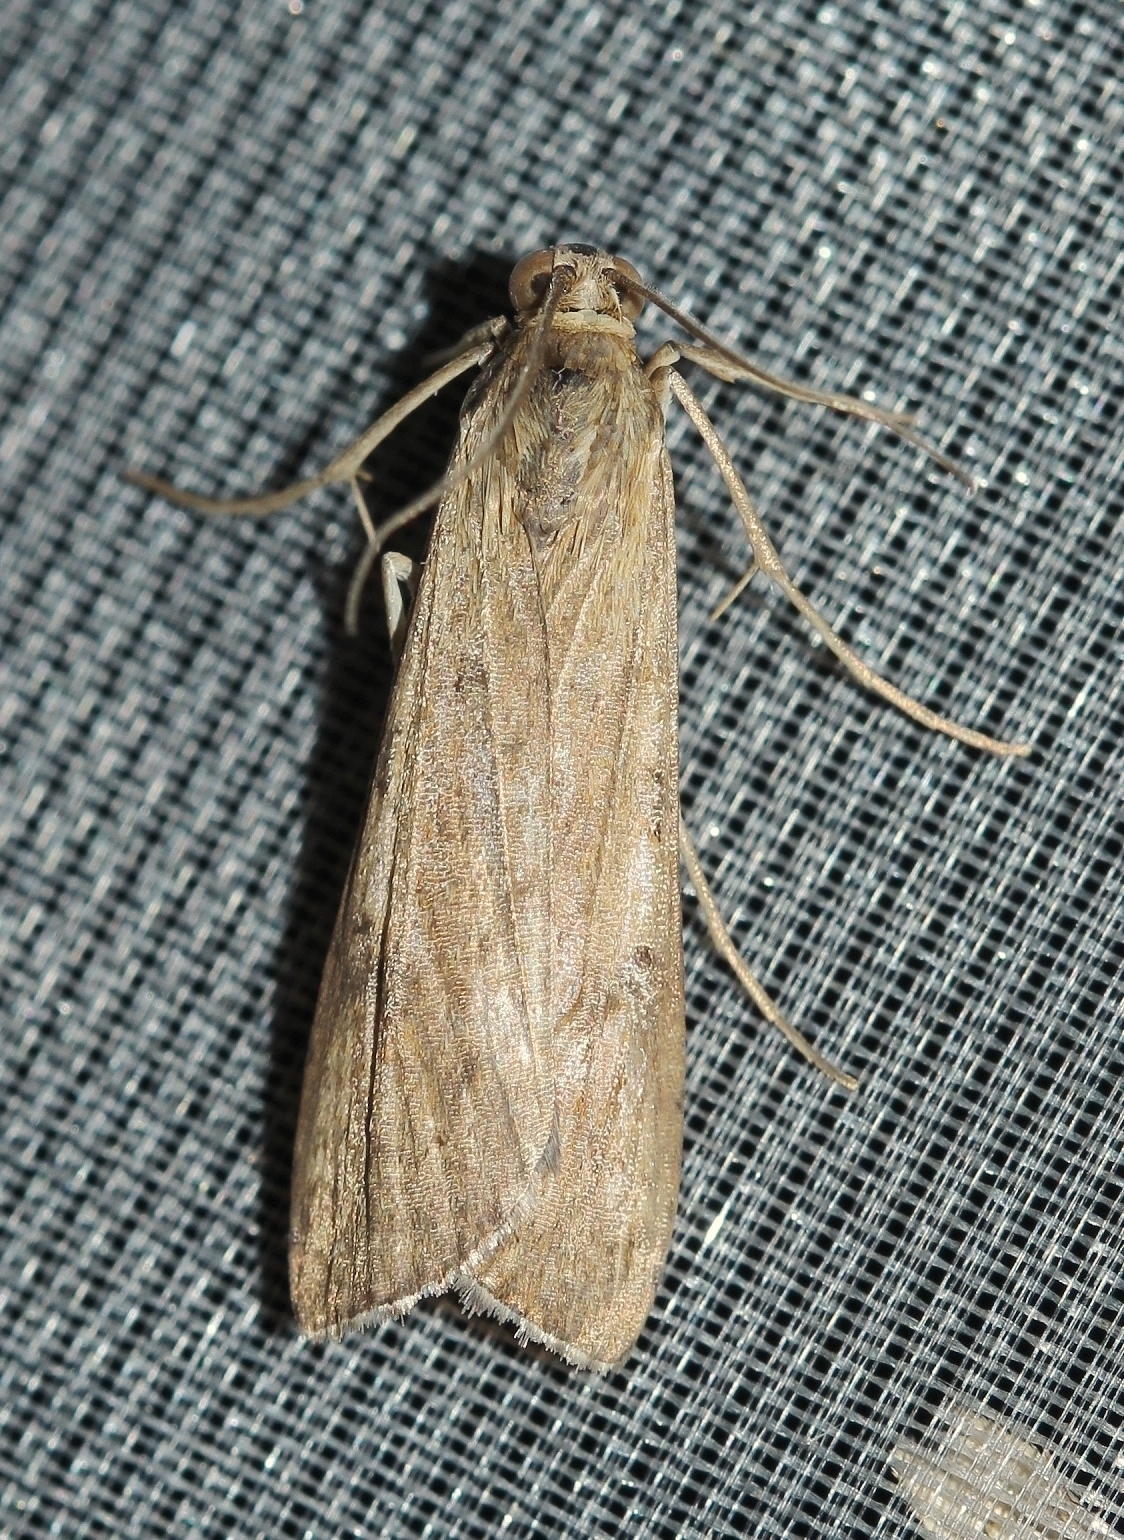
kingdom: Animalia
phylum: Arthropoda
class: Insecta
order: Lepidoptera
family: Crambidae
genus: Nomophila
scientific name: Nomophila noctuella
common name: Rush veneer
